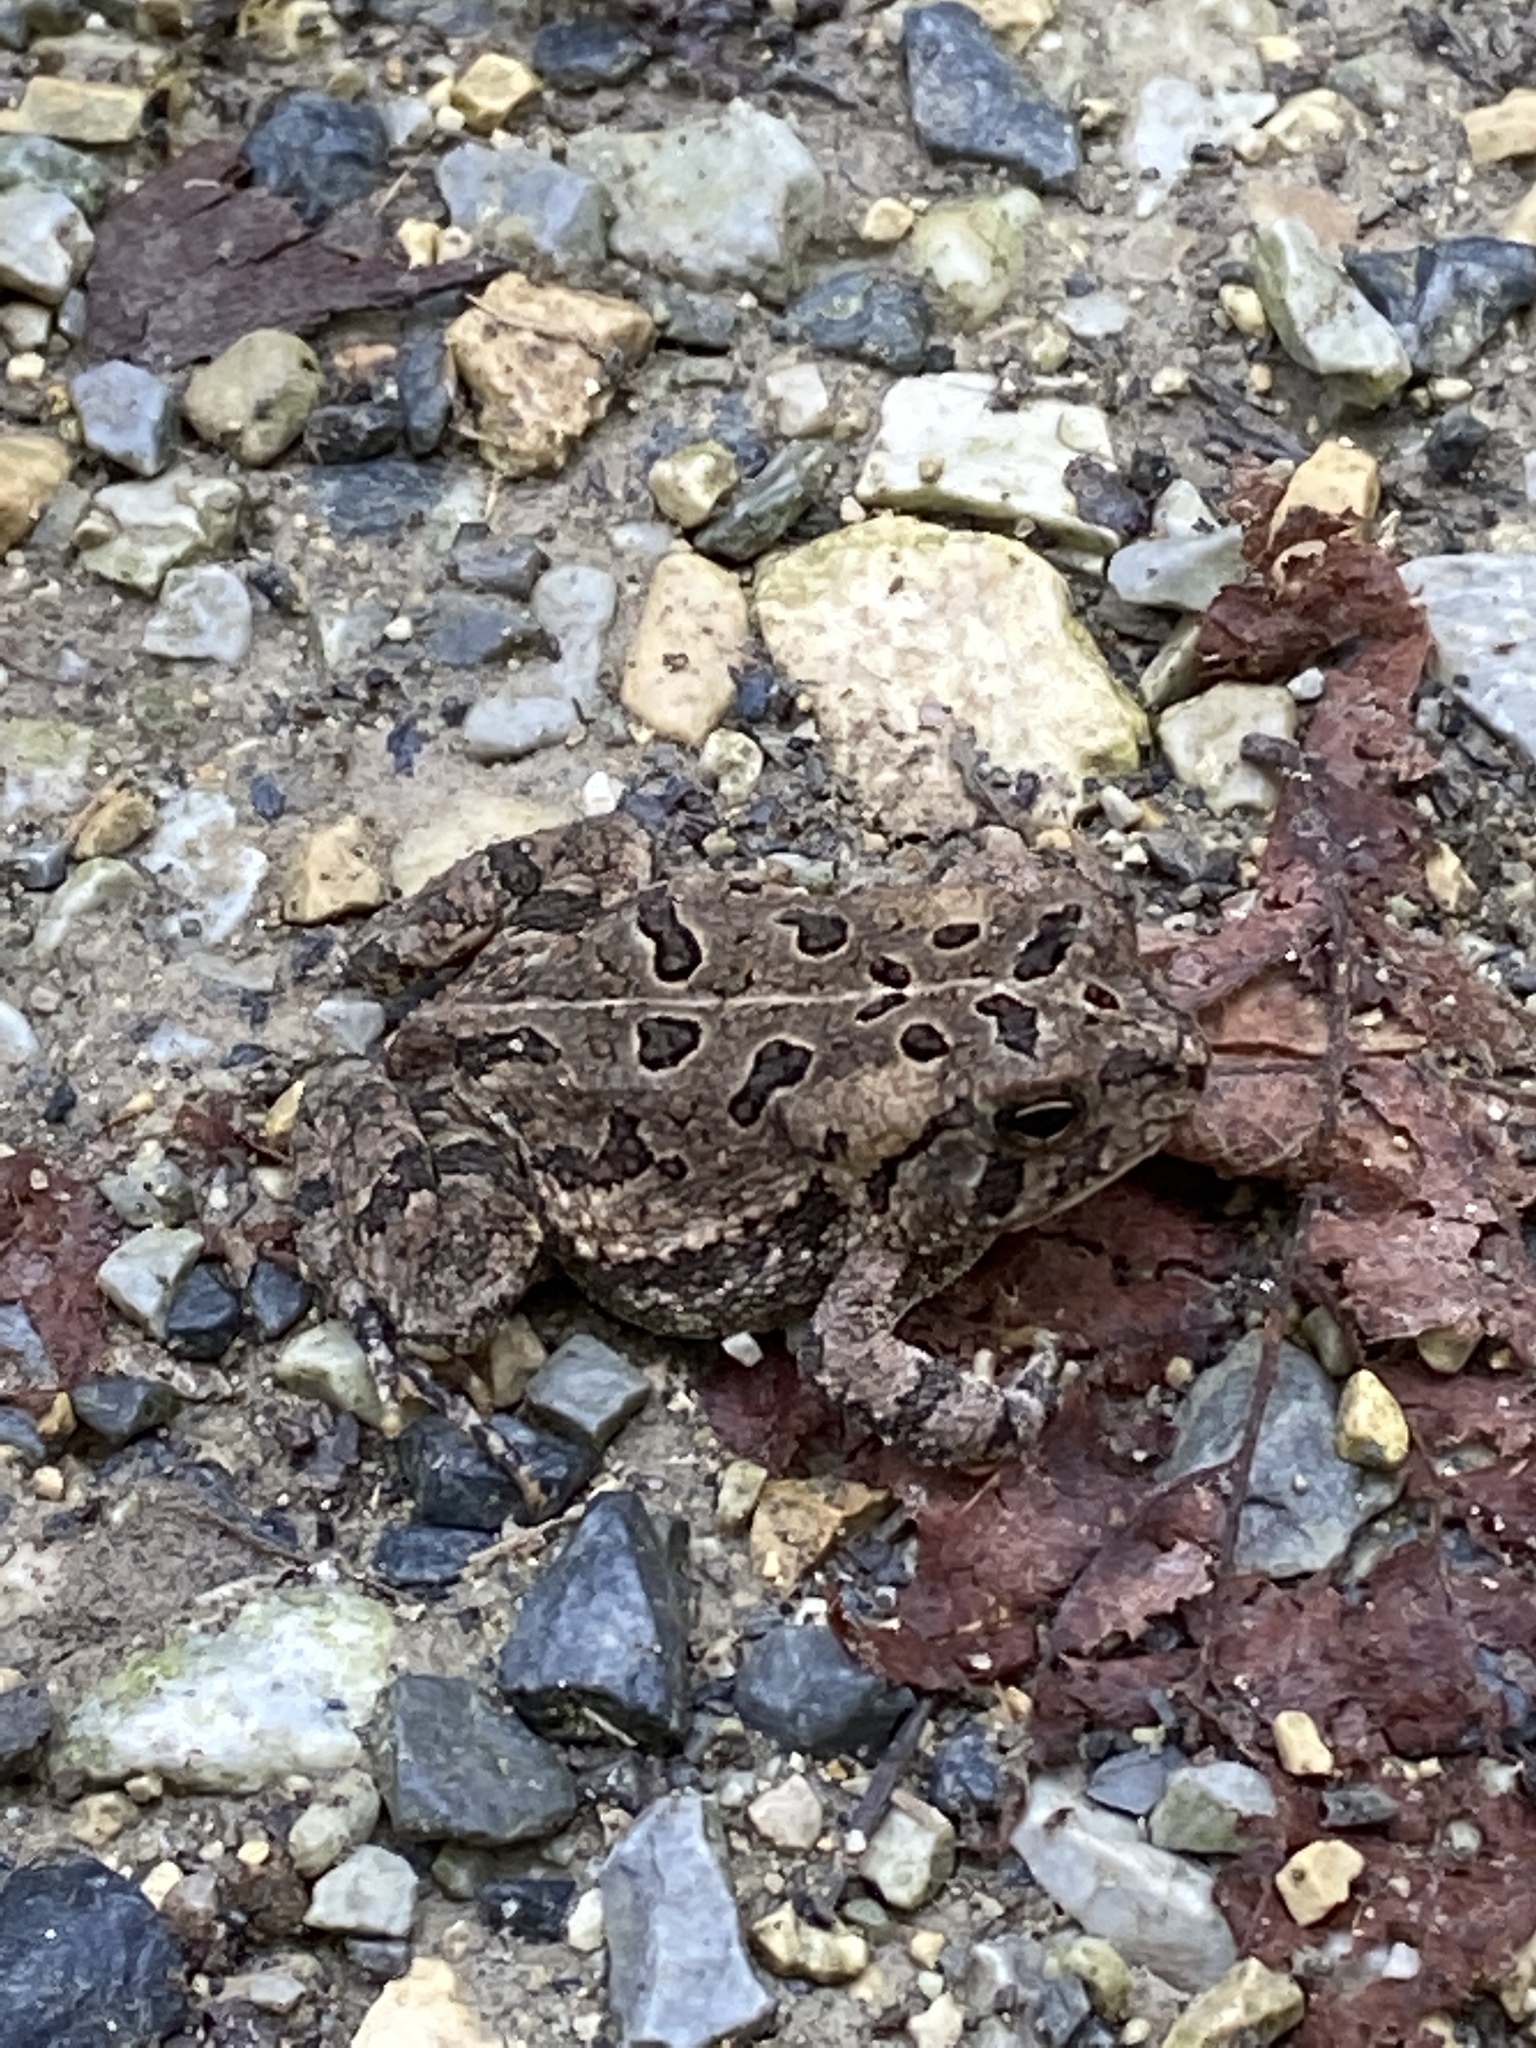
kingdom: Animalia
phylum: Chordata
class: Amphibia
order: Anura
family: Bufonidae
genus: Anaxyrus
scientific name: Anaxyrus fowleri
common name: Fowler's toad
